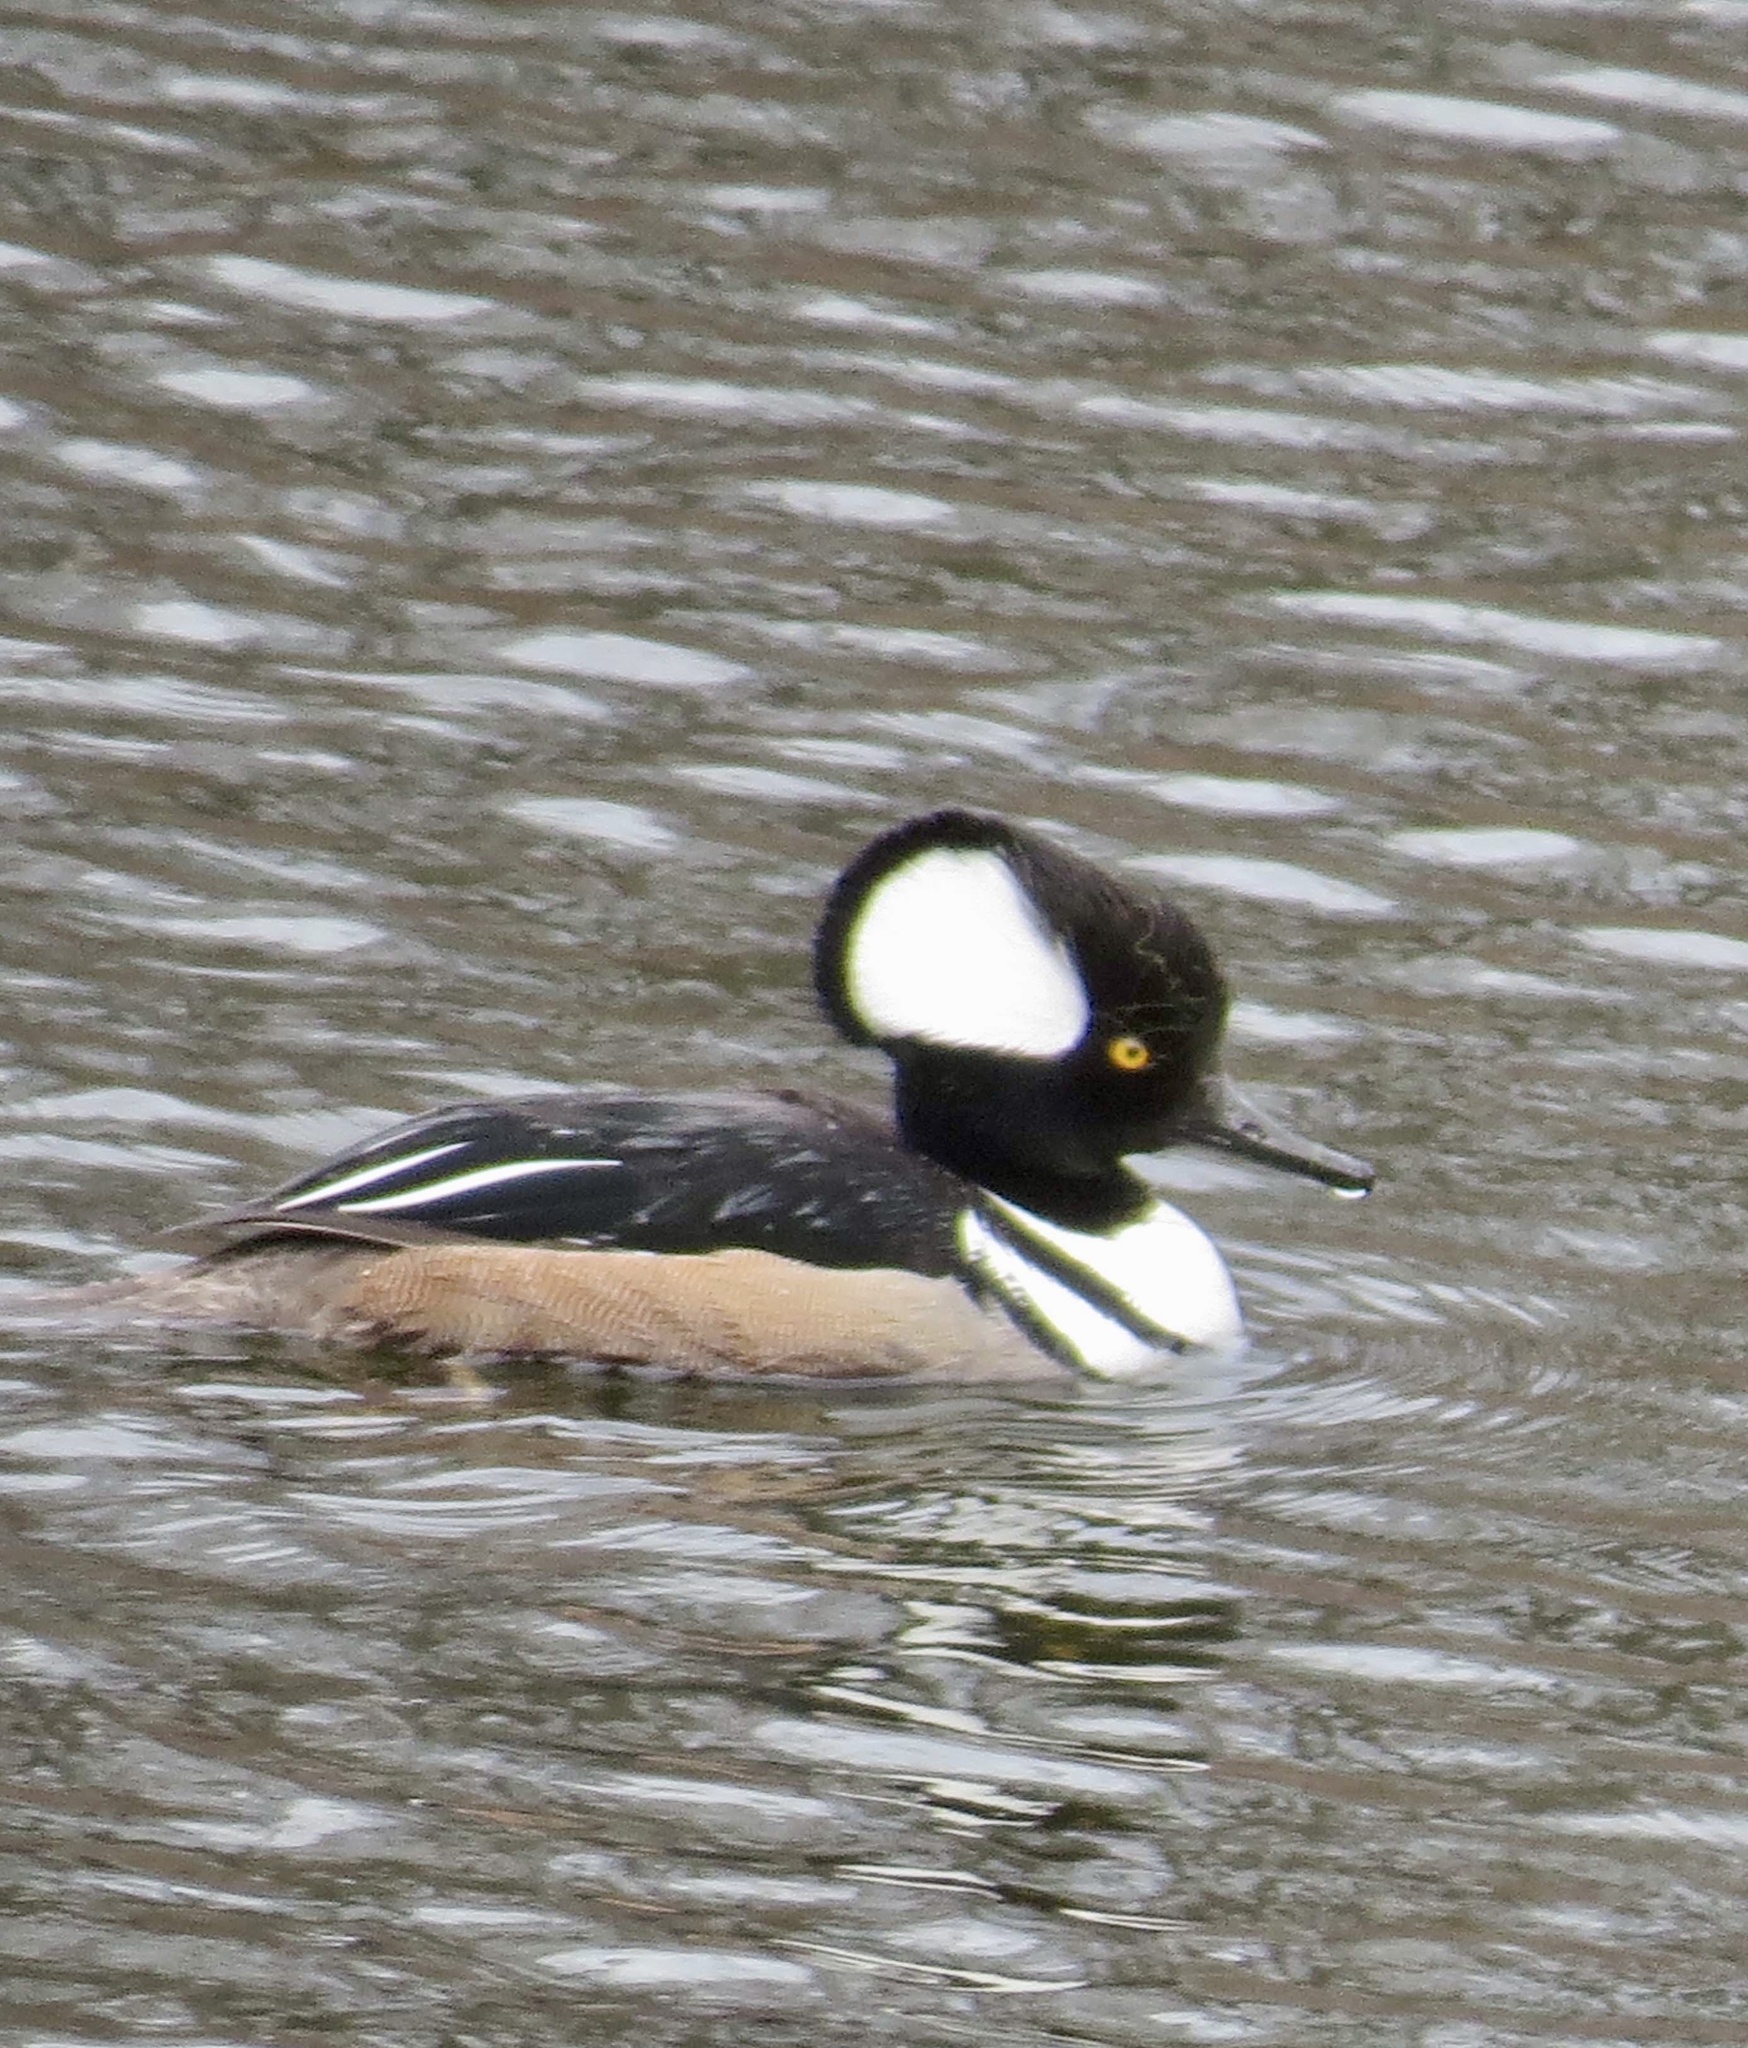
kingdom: Animalia
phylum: Chordata
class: Aves
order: Anseriformes
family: Anatidae
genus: Lophodytes
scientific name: Lophodytes cucullatus
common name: Hooded merganser
